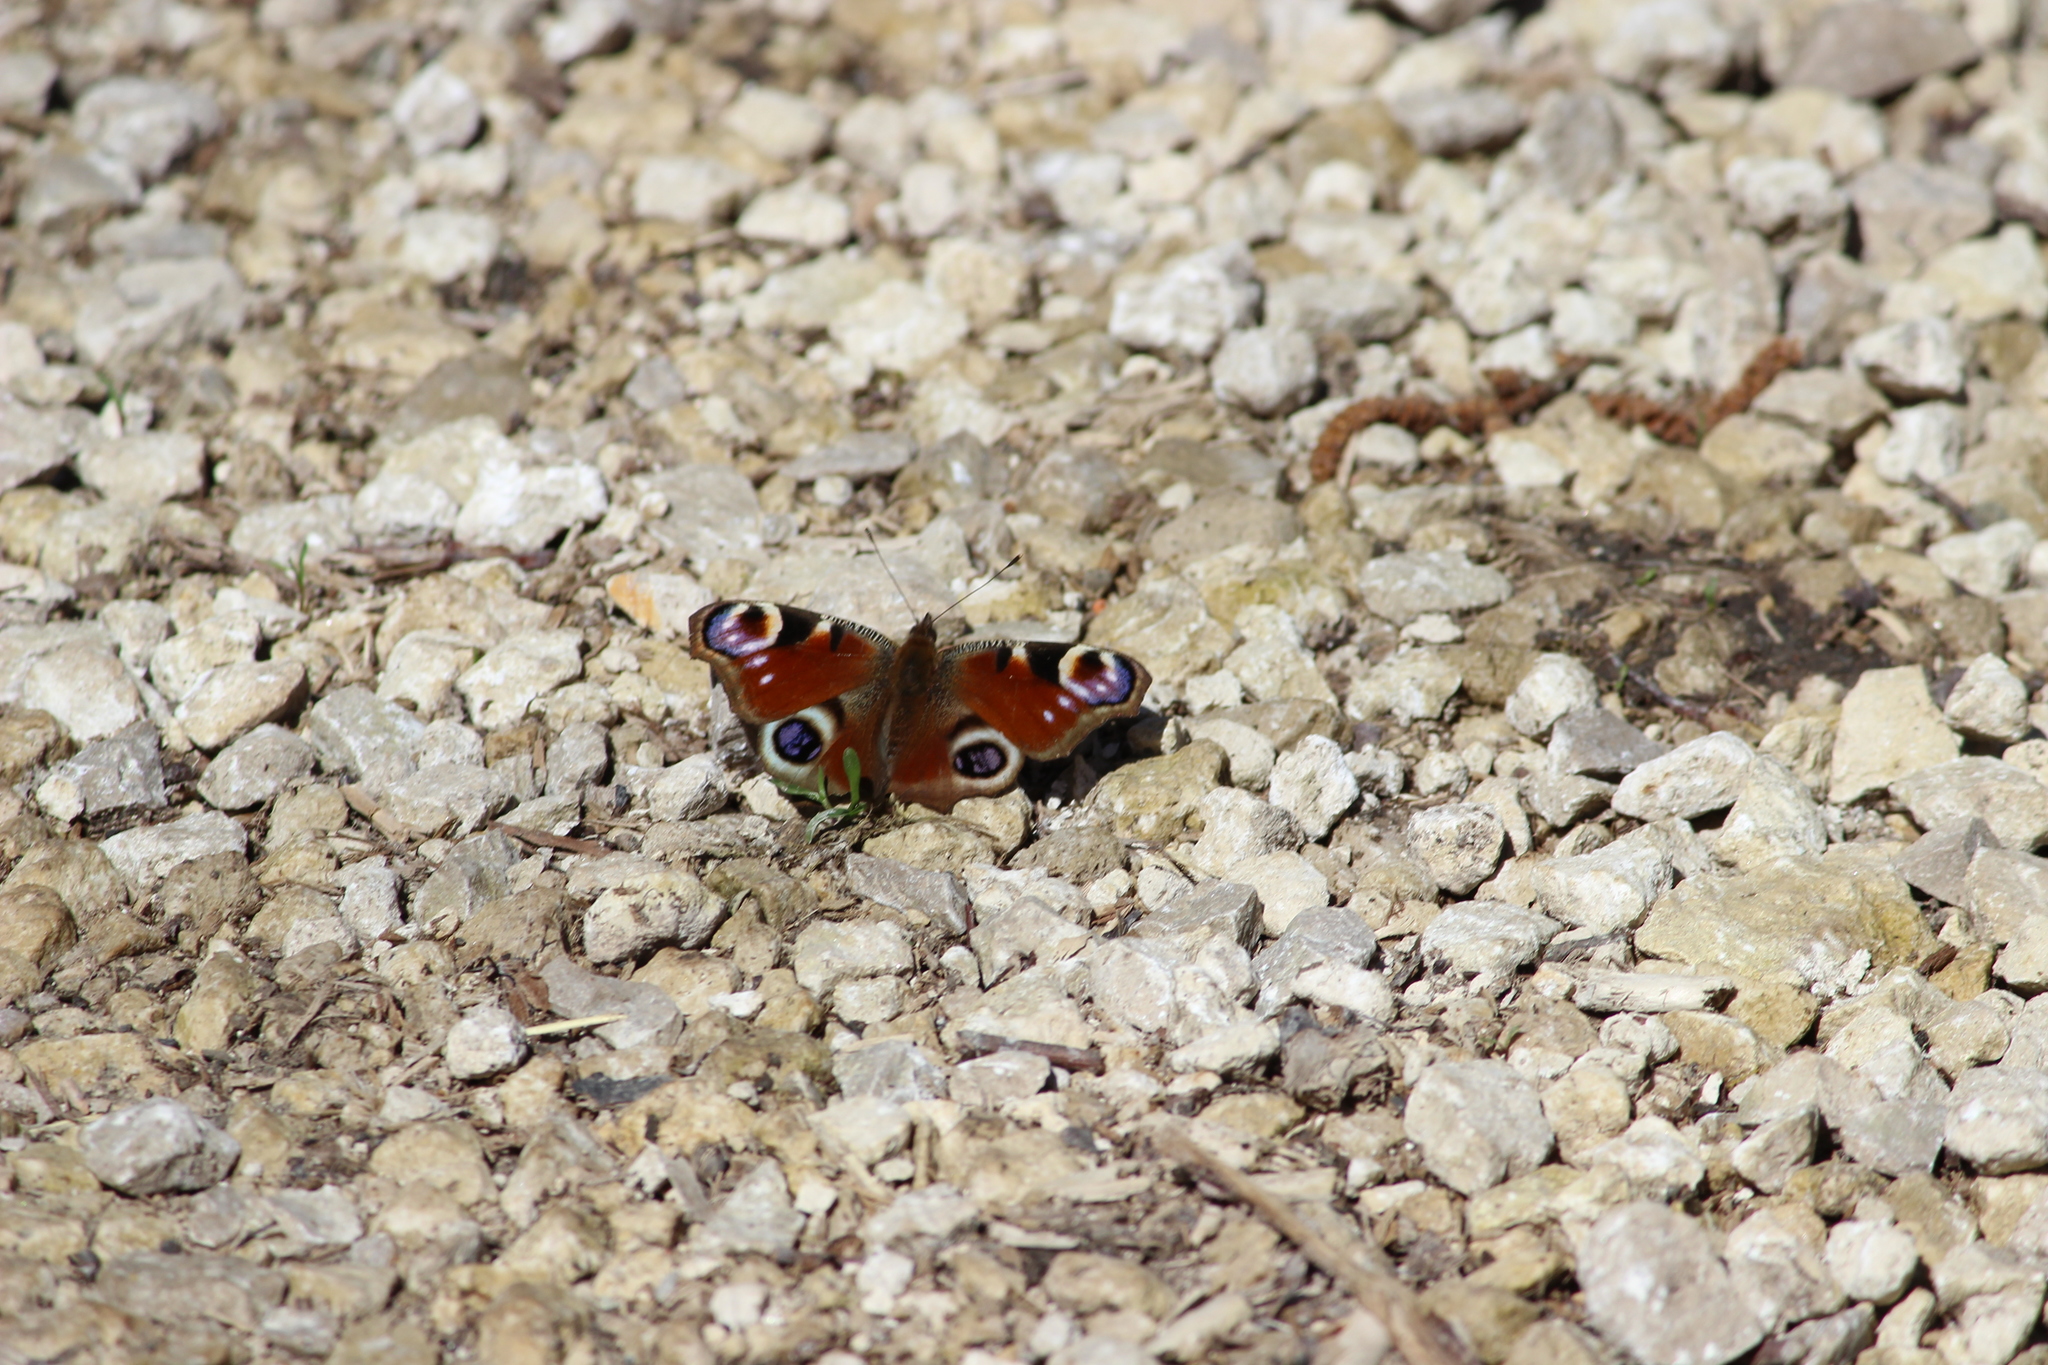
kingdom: Animalia
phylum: Arthropoda
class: Insecta
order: Lepidoptera
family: Nymphalidae
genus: Aglais
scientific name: Aglais io
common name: Peacock
